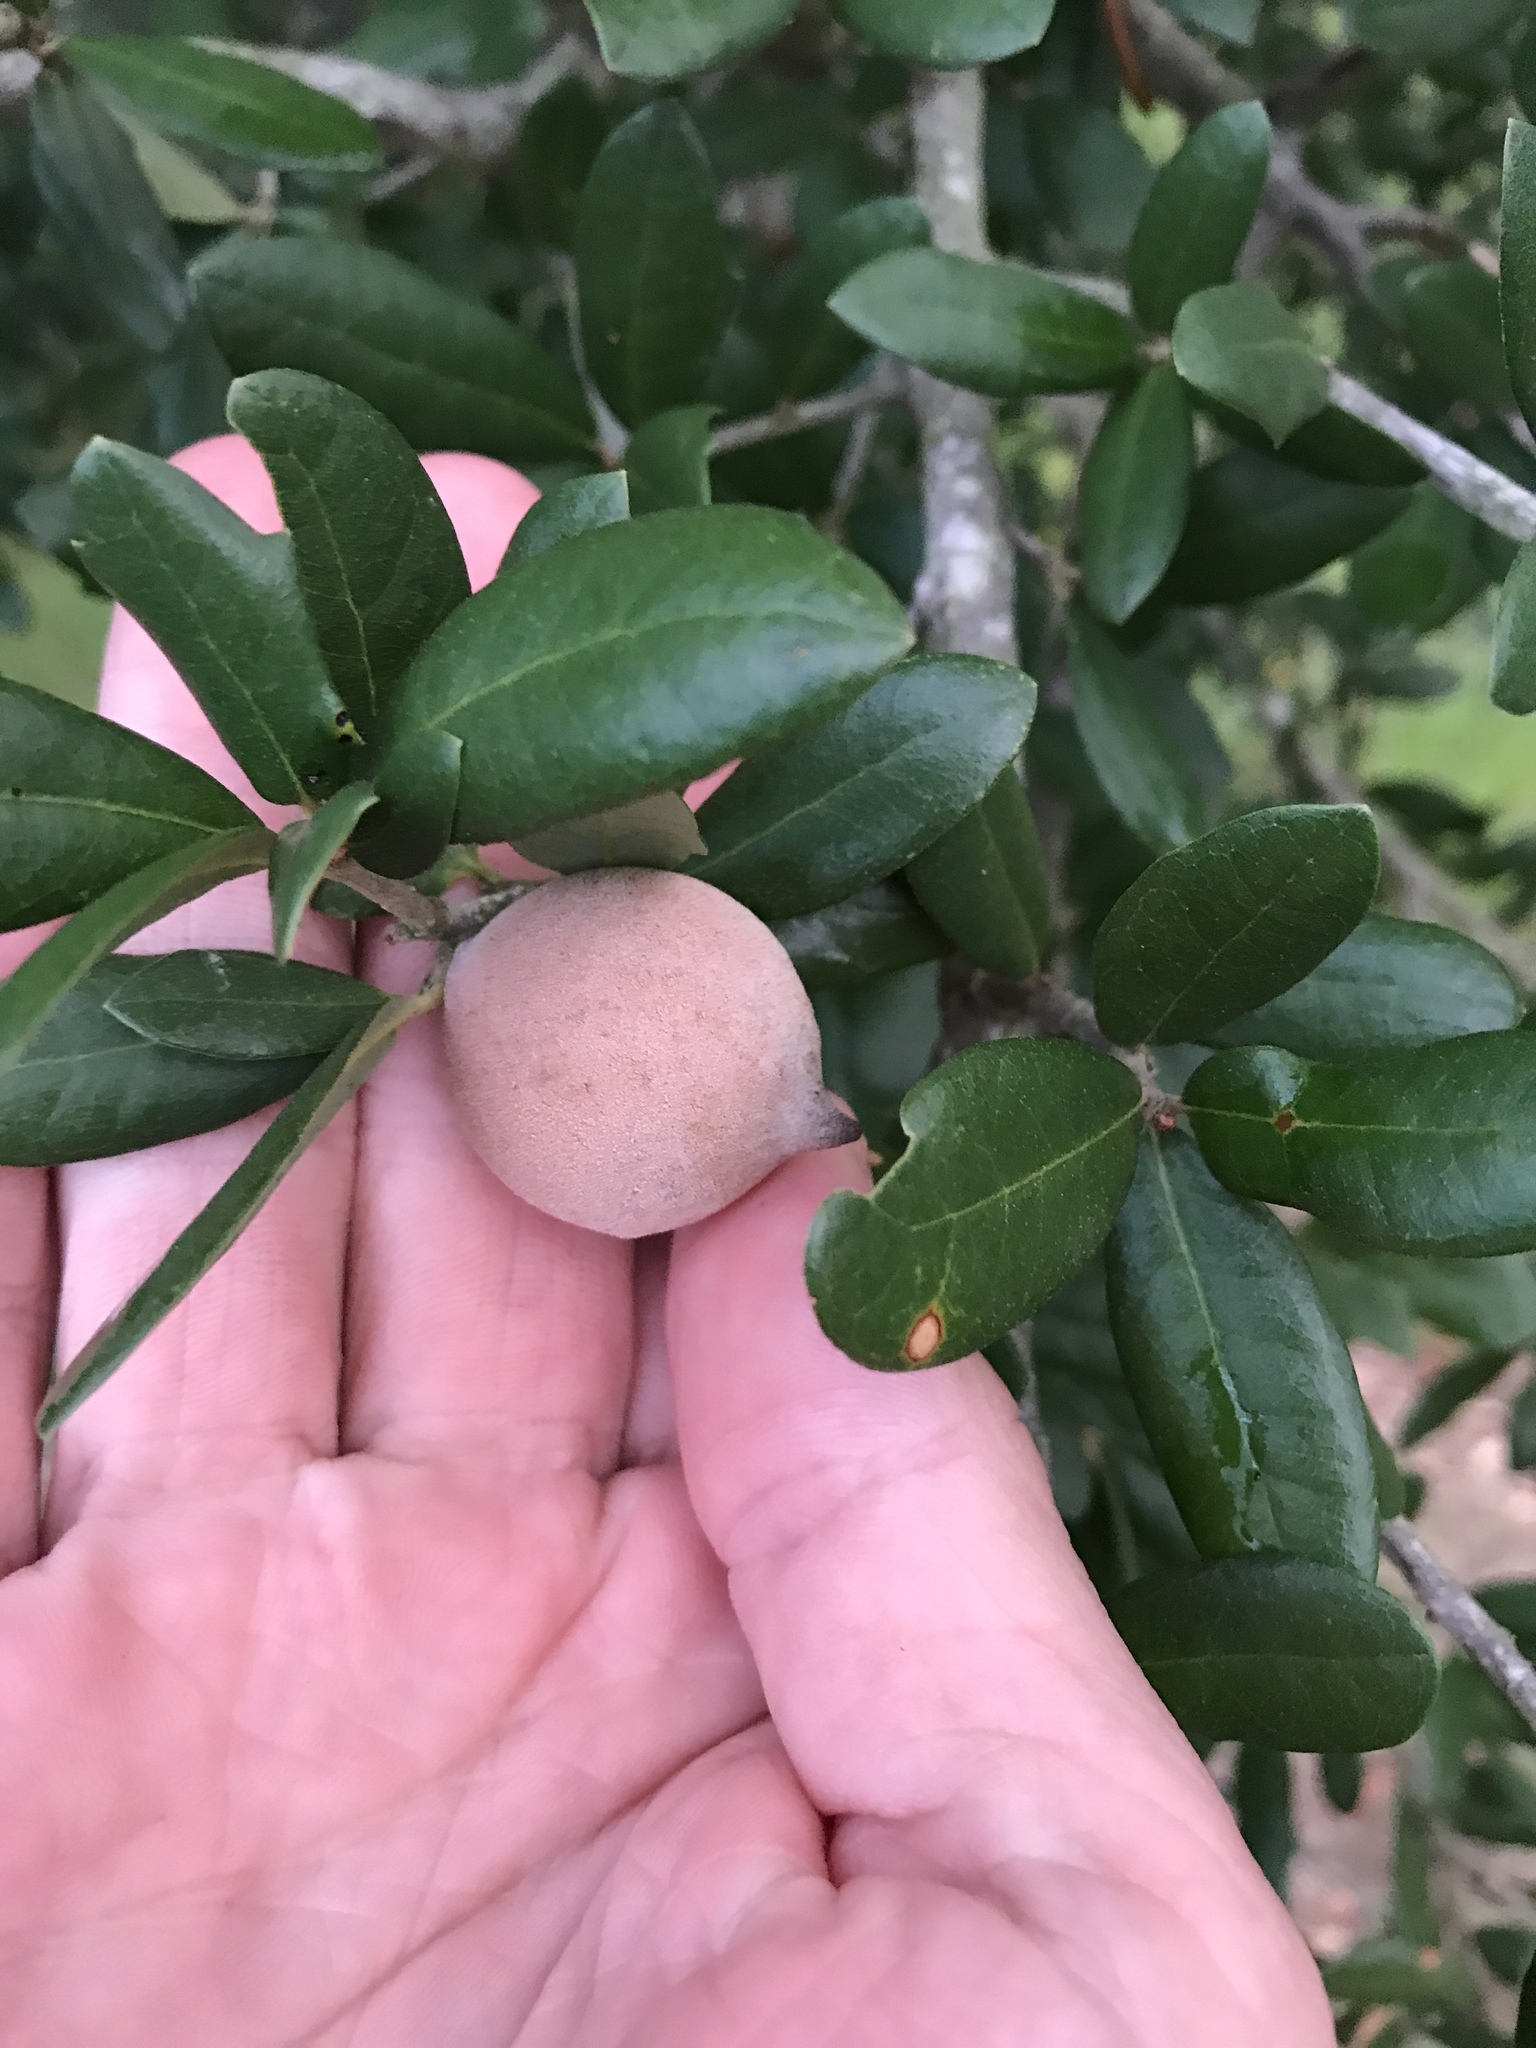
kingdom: Animalia
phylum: Arthropoda
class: Insecta
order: Hymenoptera
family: Cynipidae
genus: Disholcaspis
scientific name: Disholcaspis
